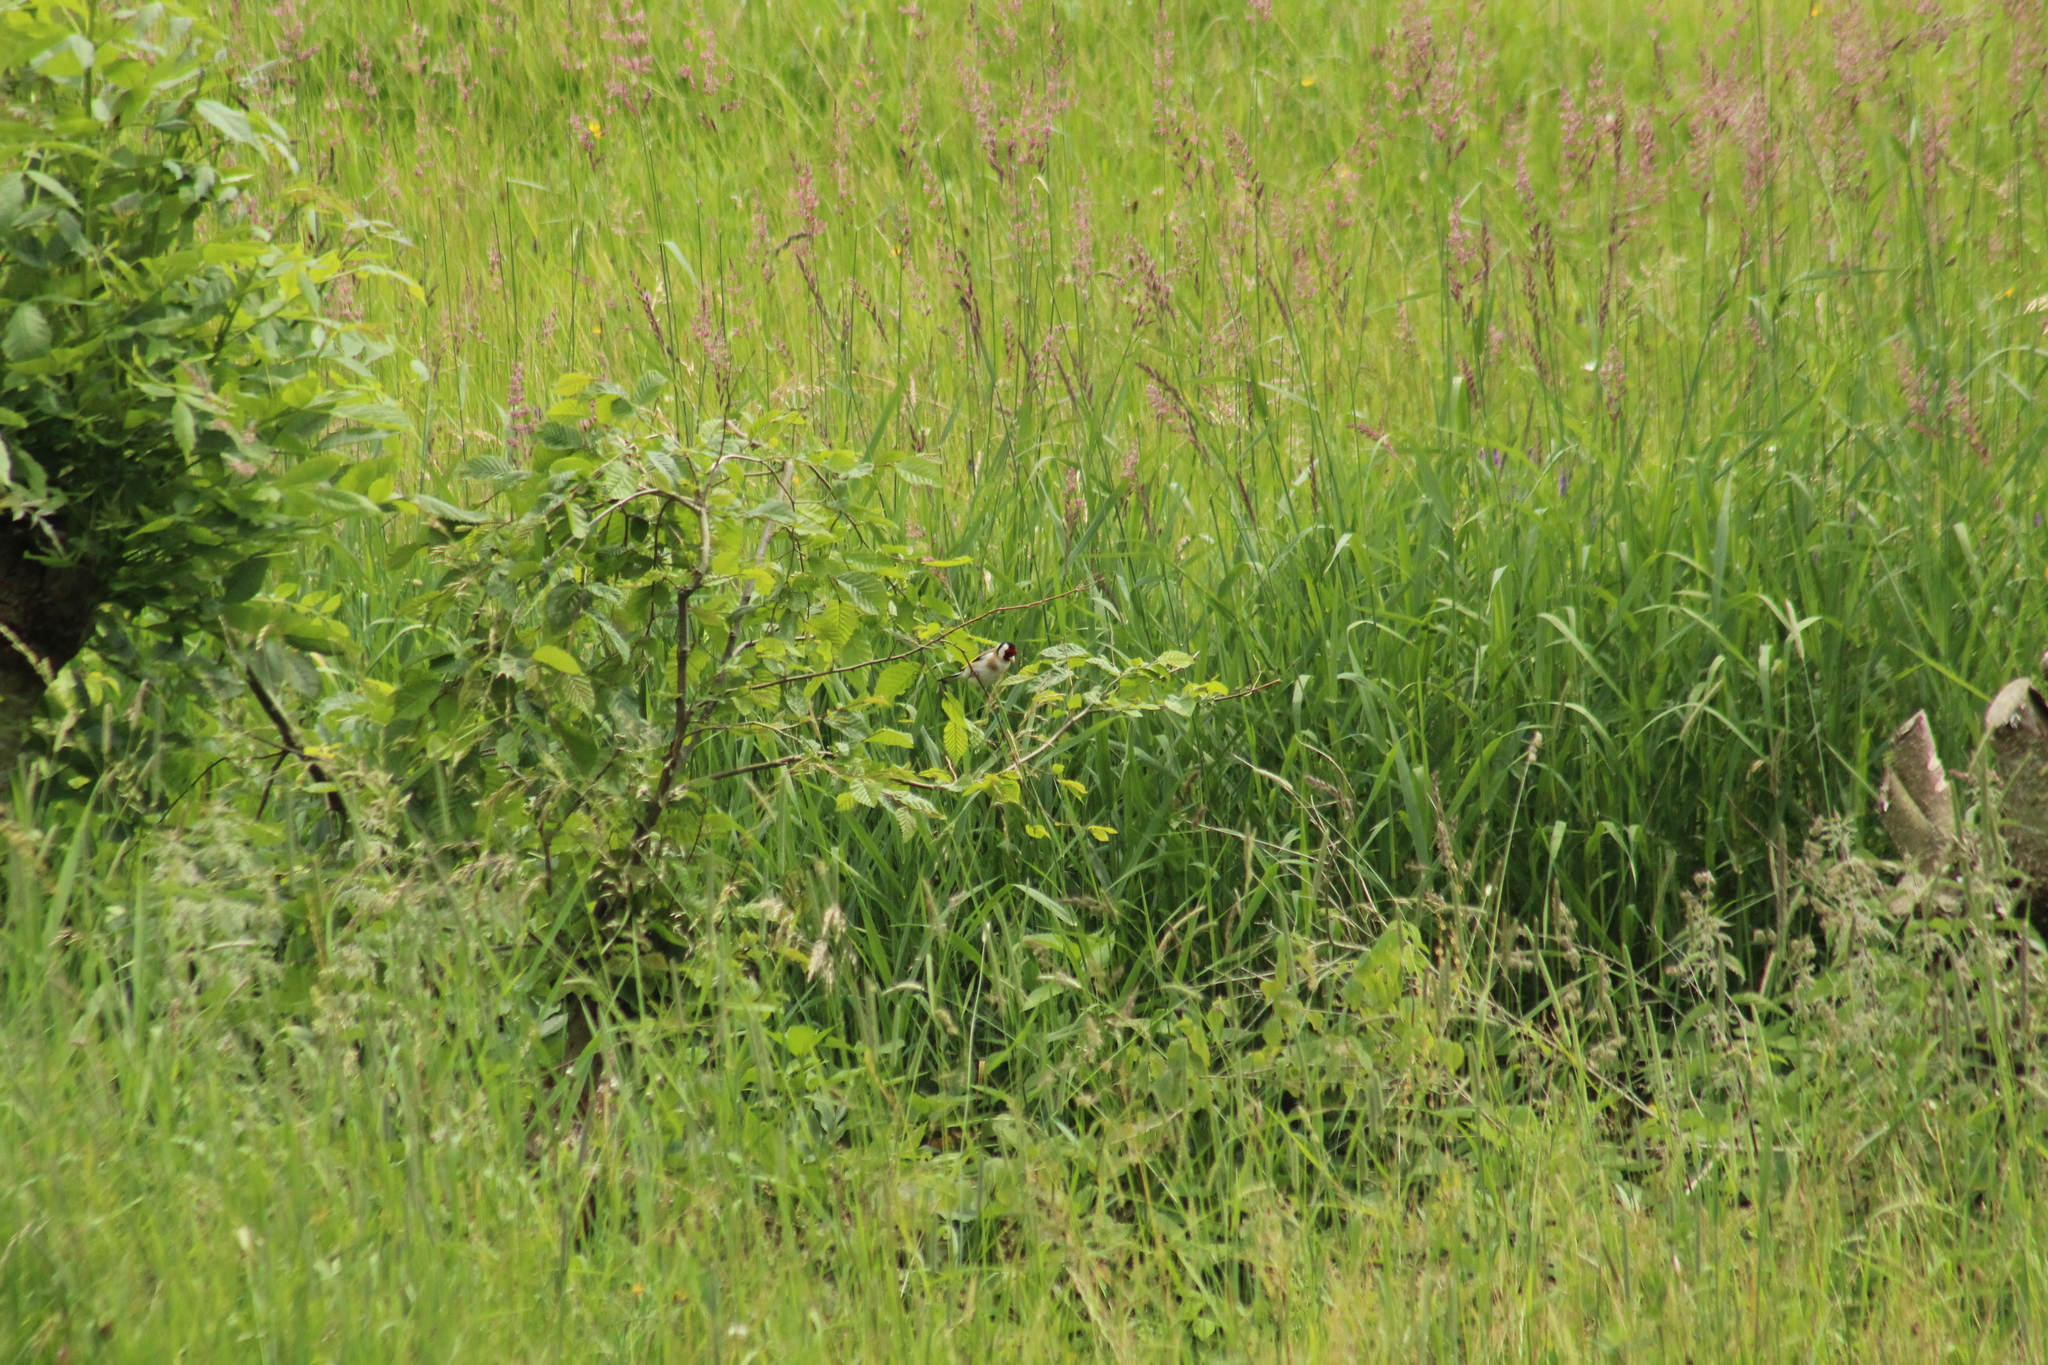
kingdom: Animalia
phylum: Chordata
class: Aves
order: Passeriformes
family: Fringillidae
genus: Carduelis
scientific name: Carduelis carduelis
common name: European goldfinch
